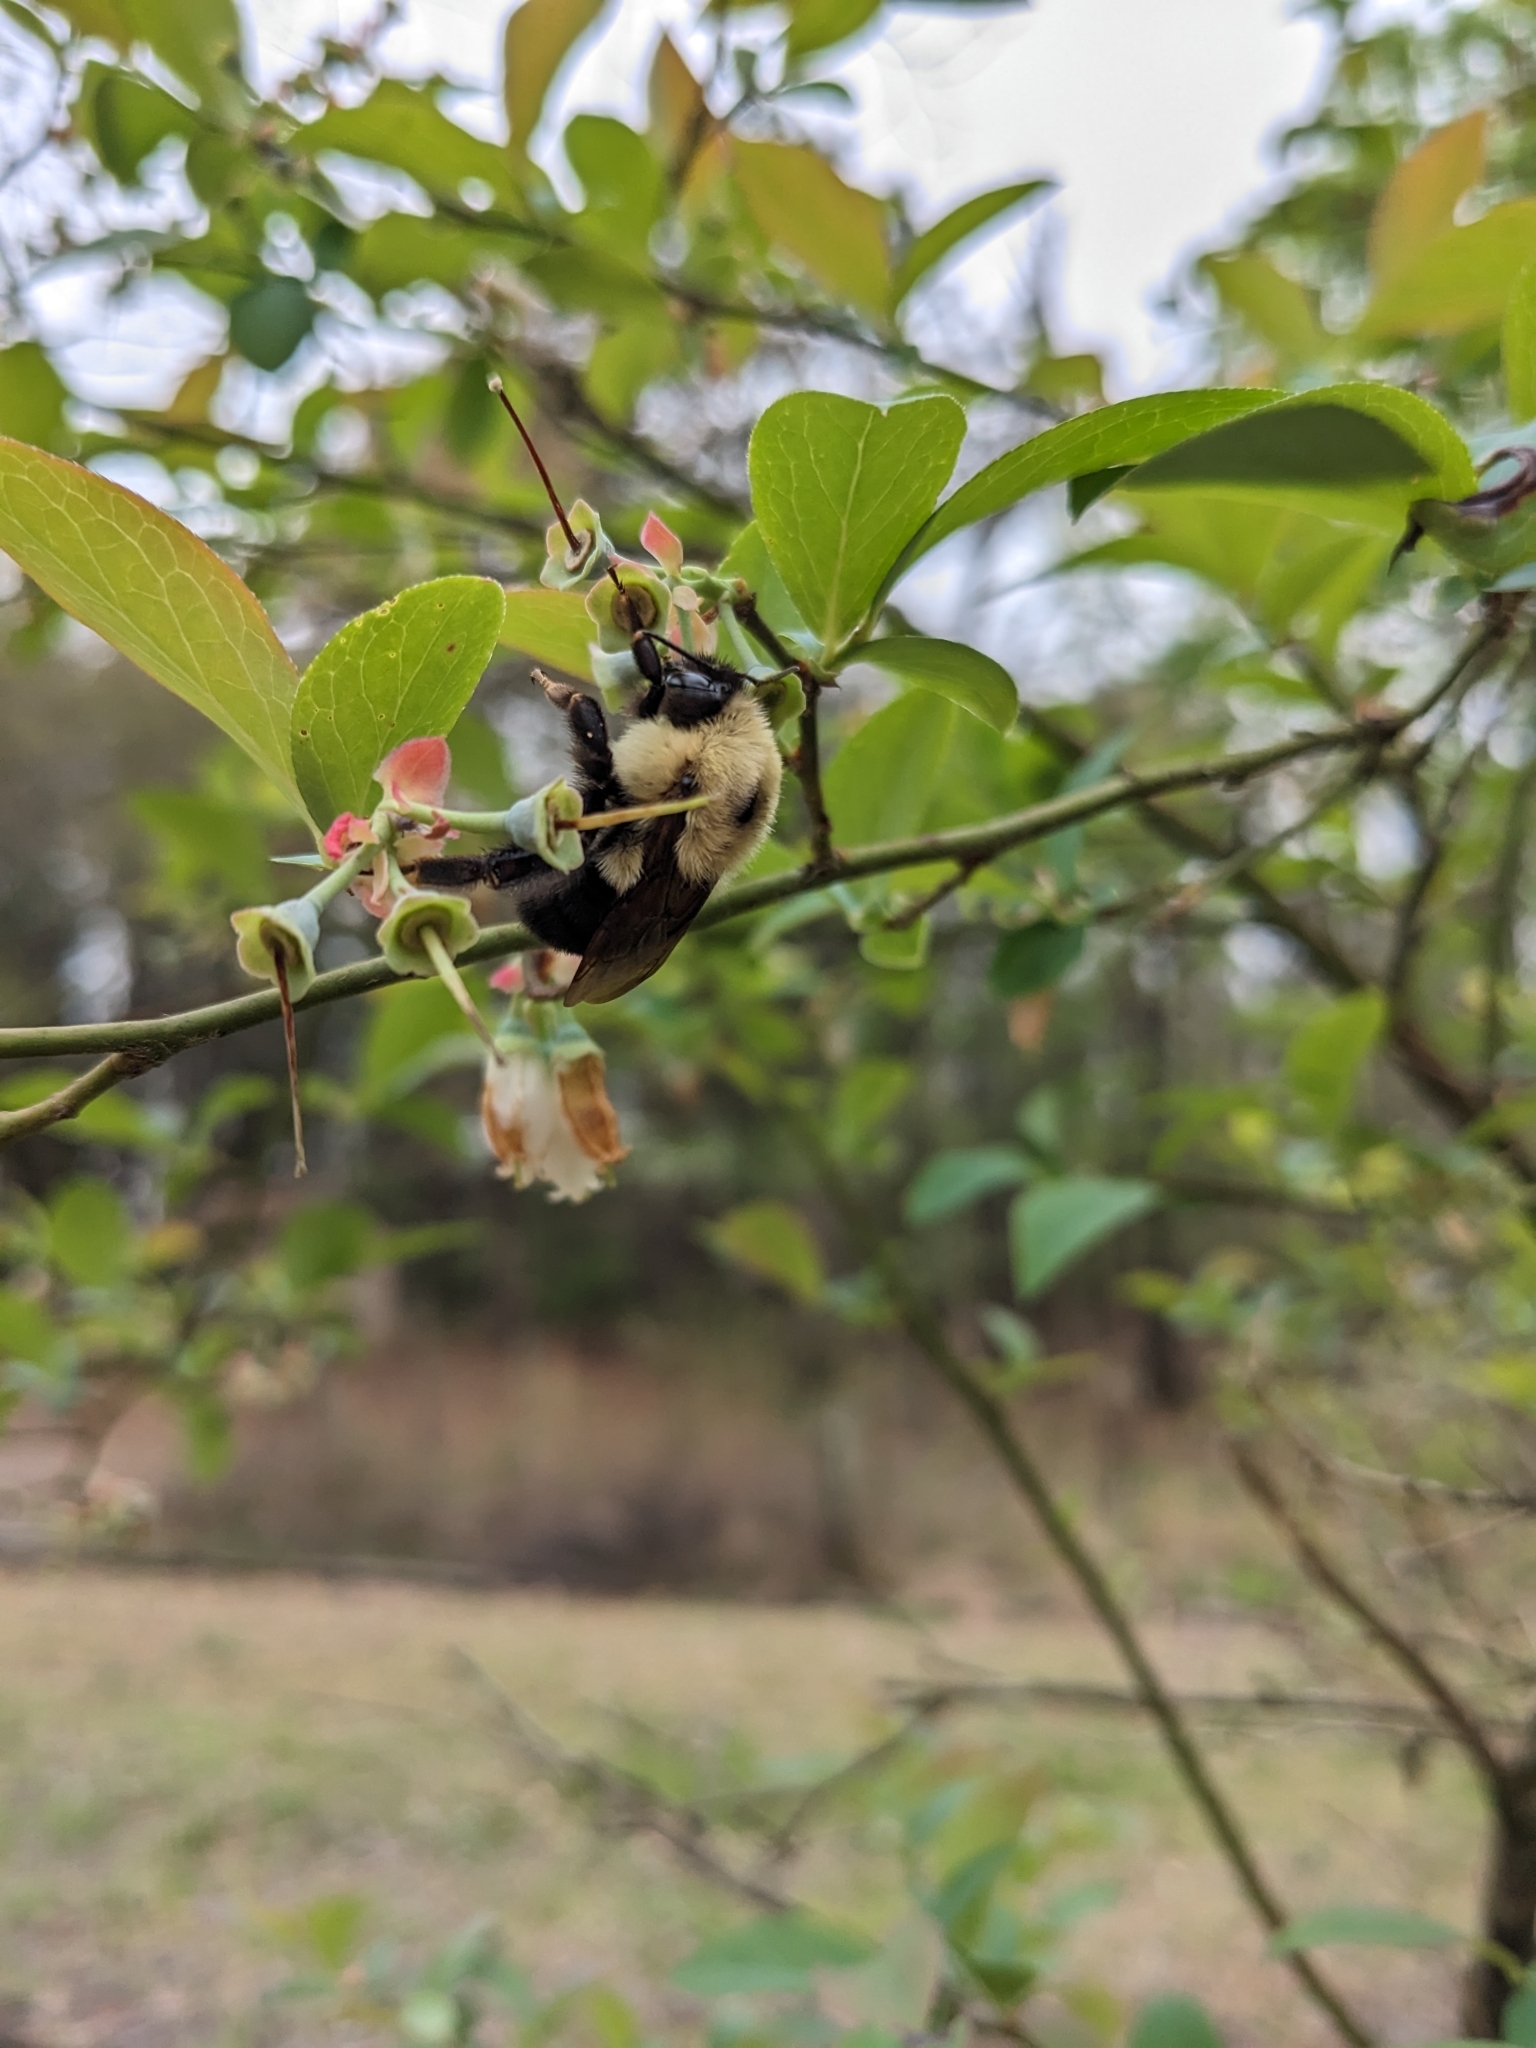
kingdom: Animalia
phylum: Arthropoda
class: Insecta
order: Hymenoptera
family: Apidae
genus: Bombus
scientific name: Bombus bimaculatus
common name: Two-spotted bumble bee
